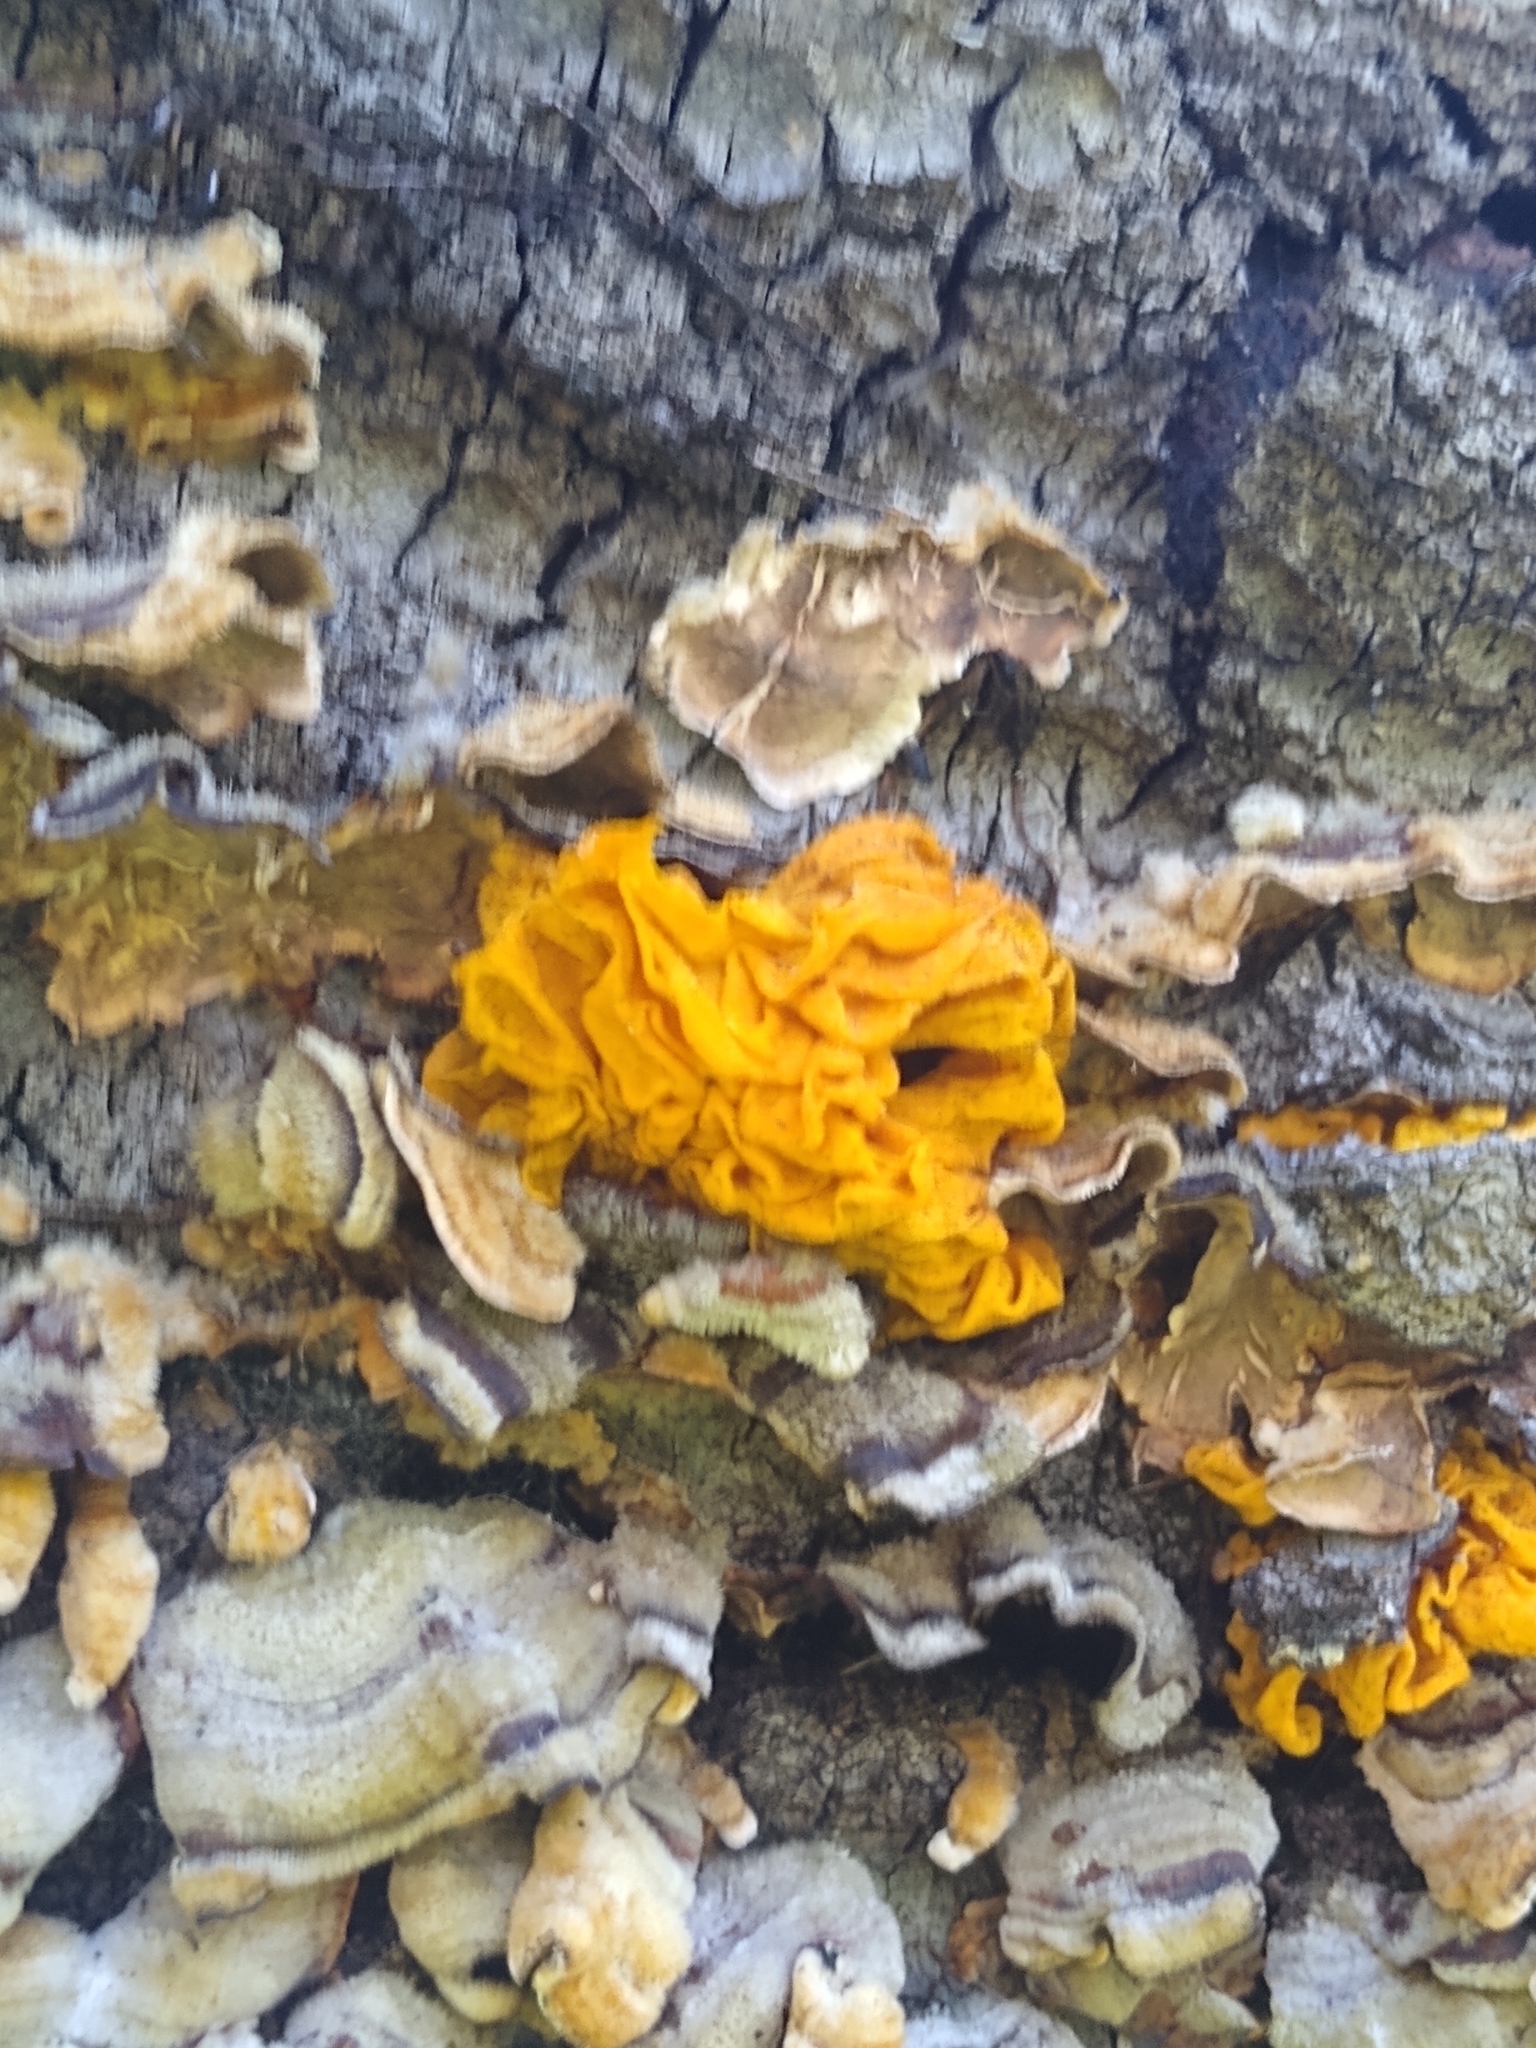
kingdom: Fungi
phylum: Basidiomycota
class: Tremellomycetes
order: Tremellales
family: Naemateliaceae
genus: Naematelia
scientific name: Naematelia aurantia
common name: Golden ear
